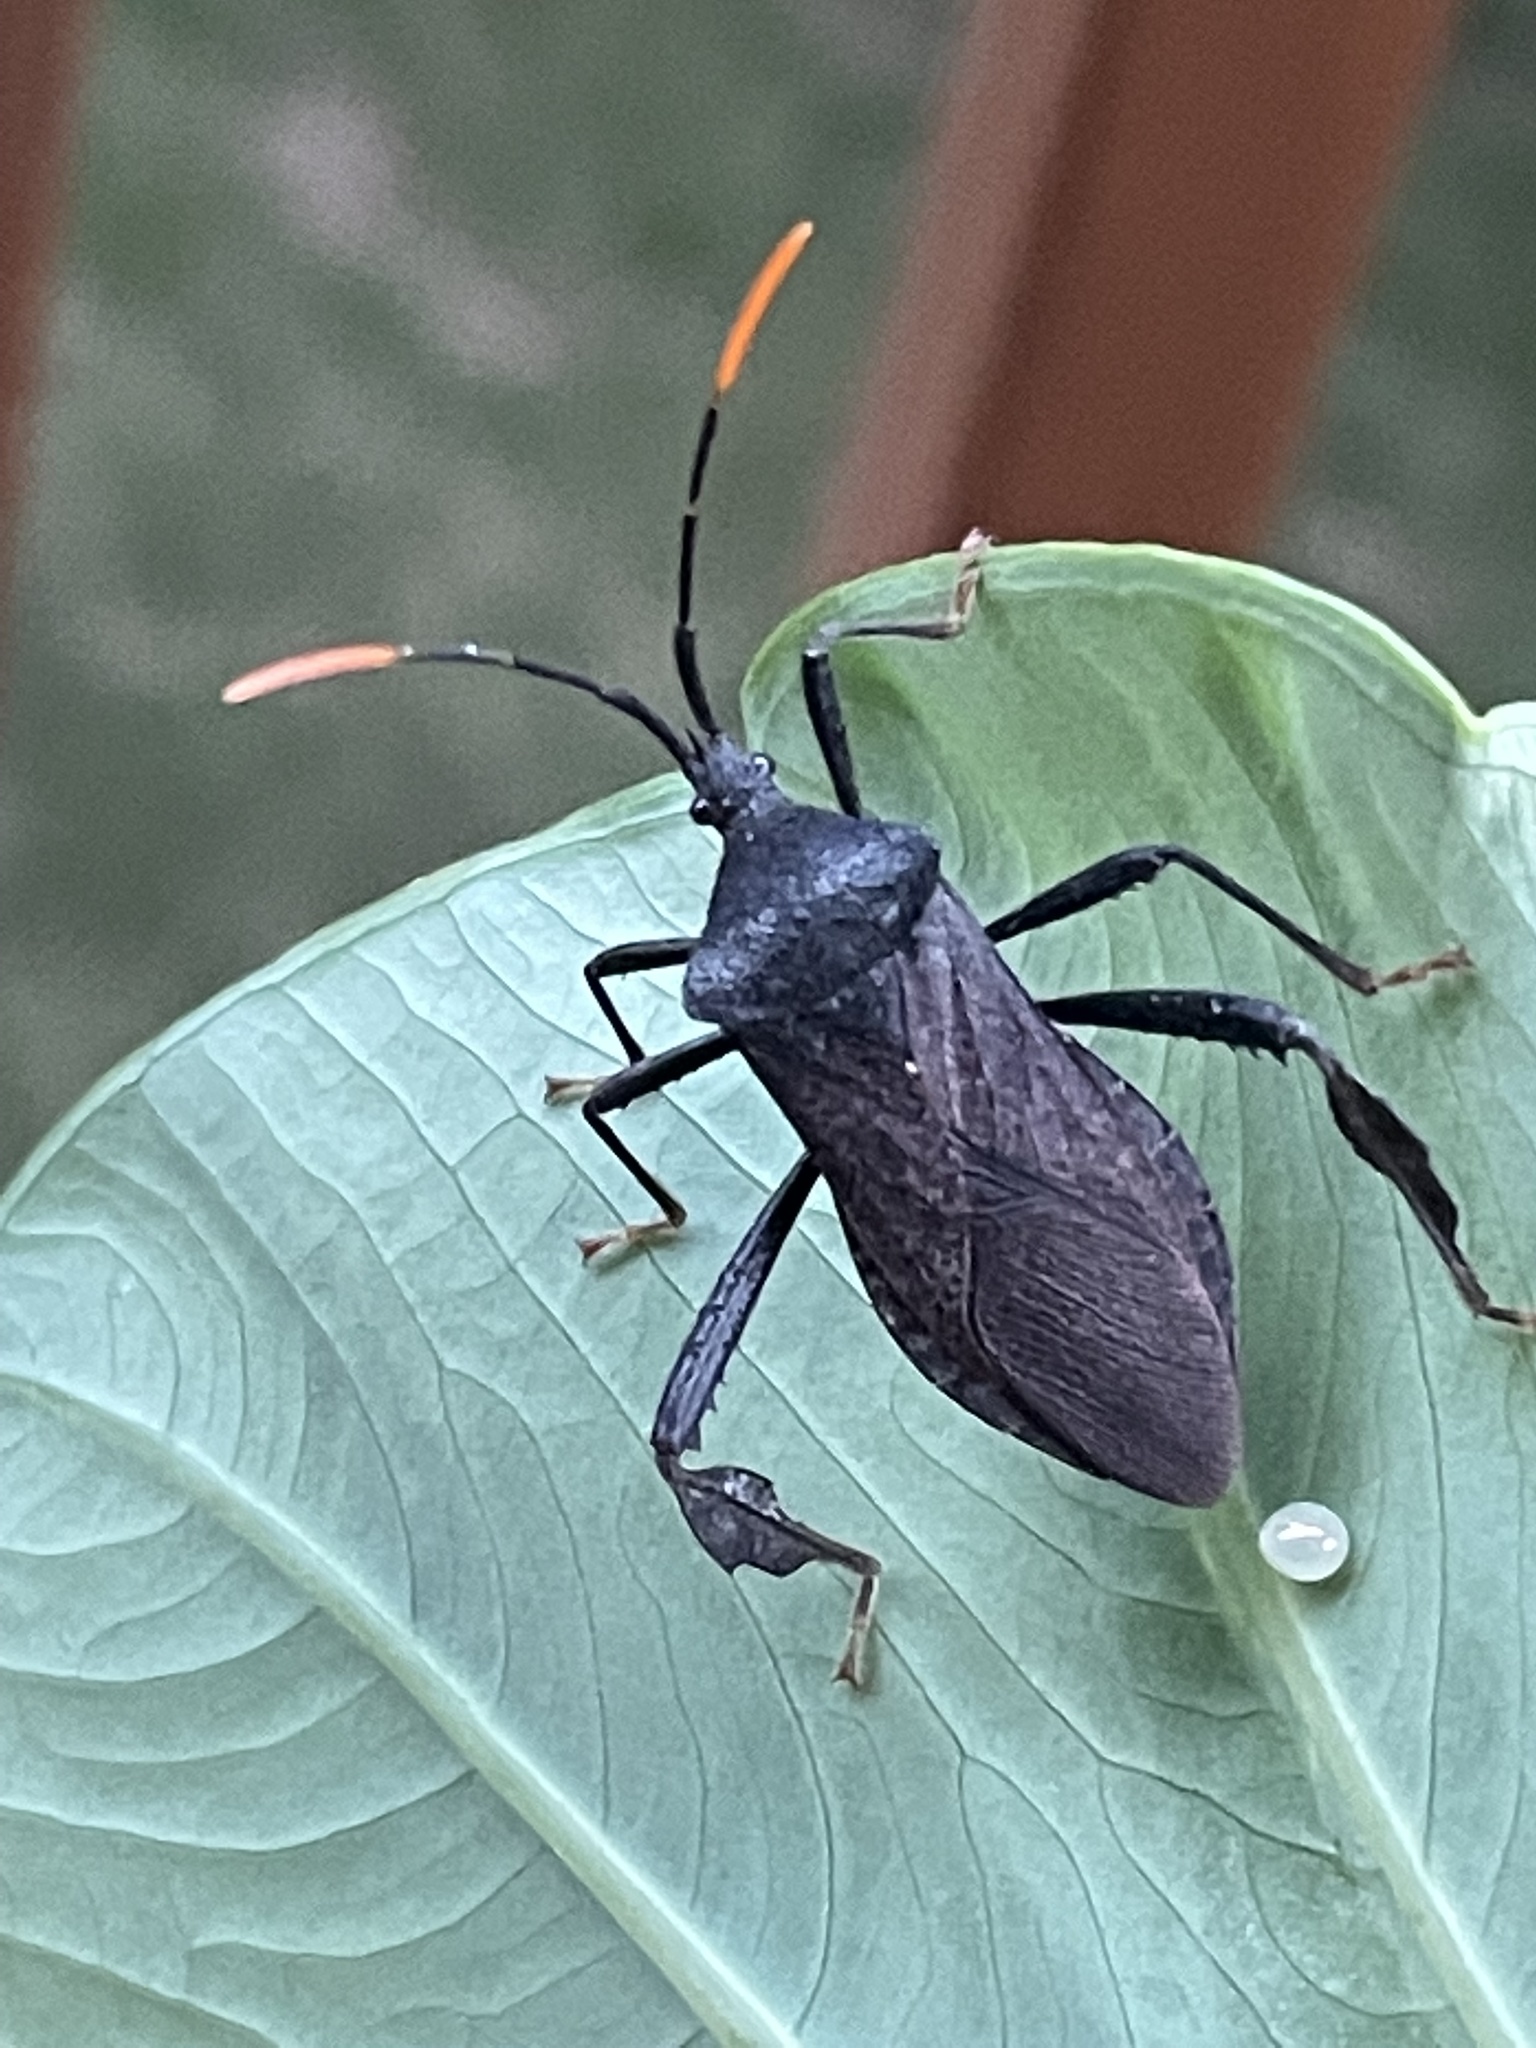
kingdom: Animalia
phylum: Arthropoda
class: Insecta
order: Hemiptera
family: Coreidae
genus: Acanthocephala
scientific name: Acanthocephala terminalis
